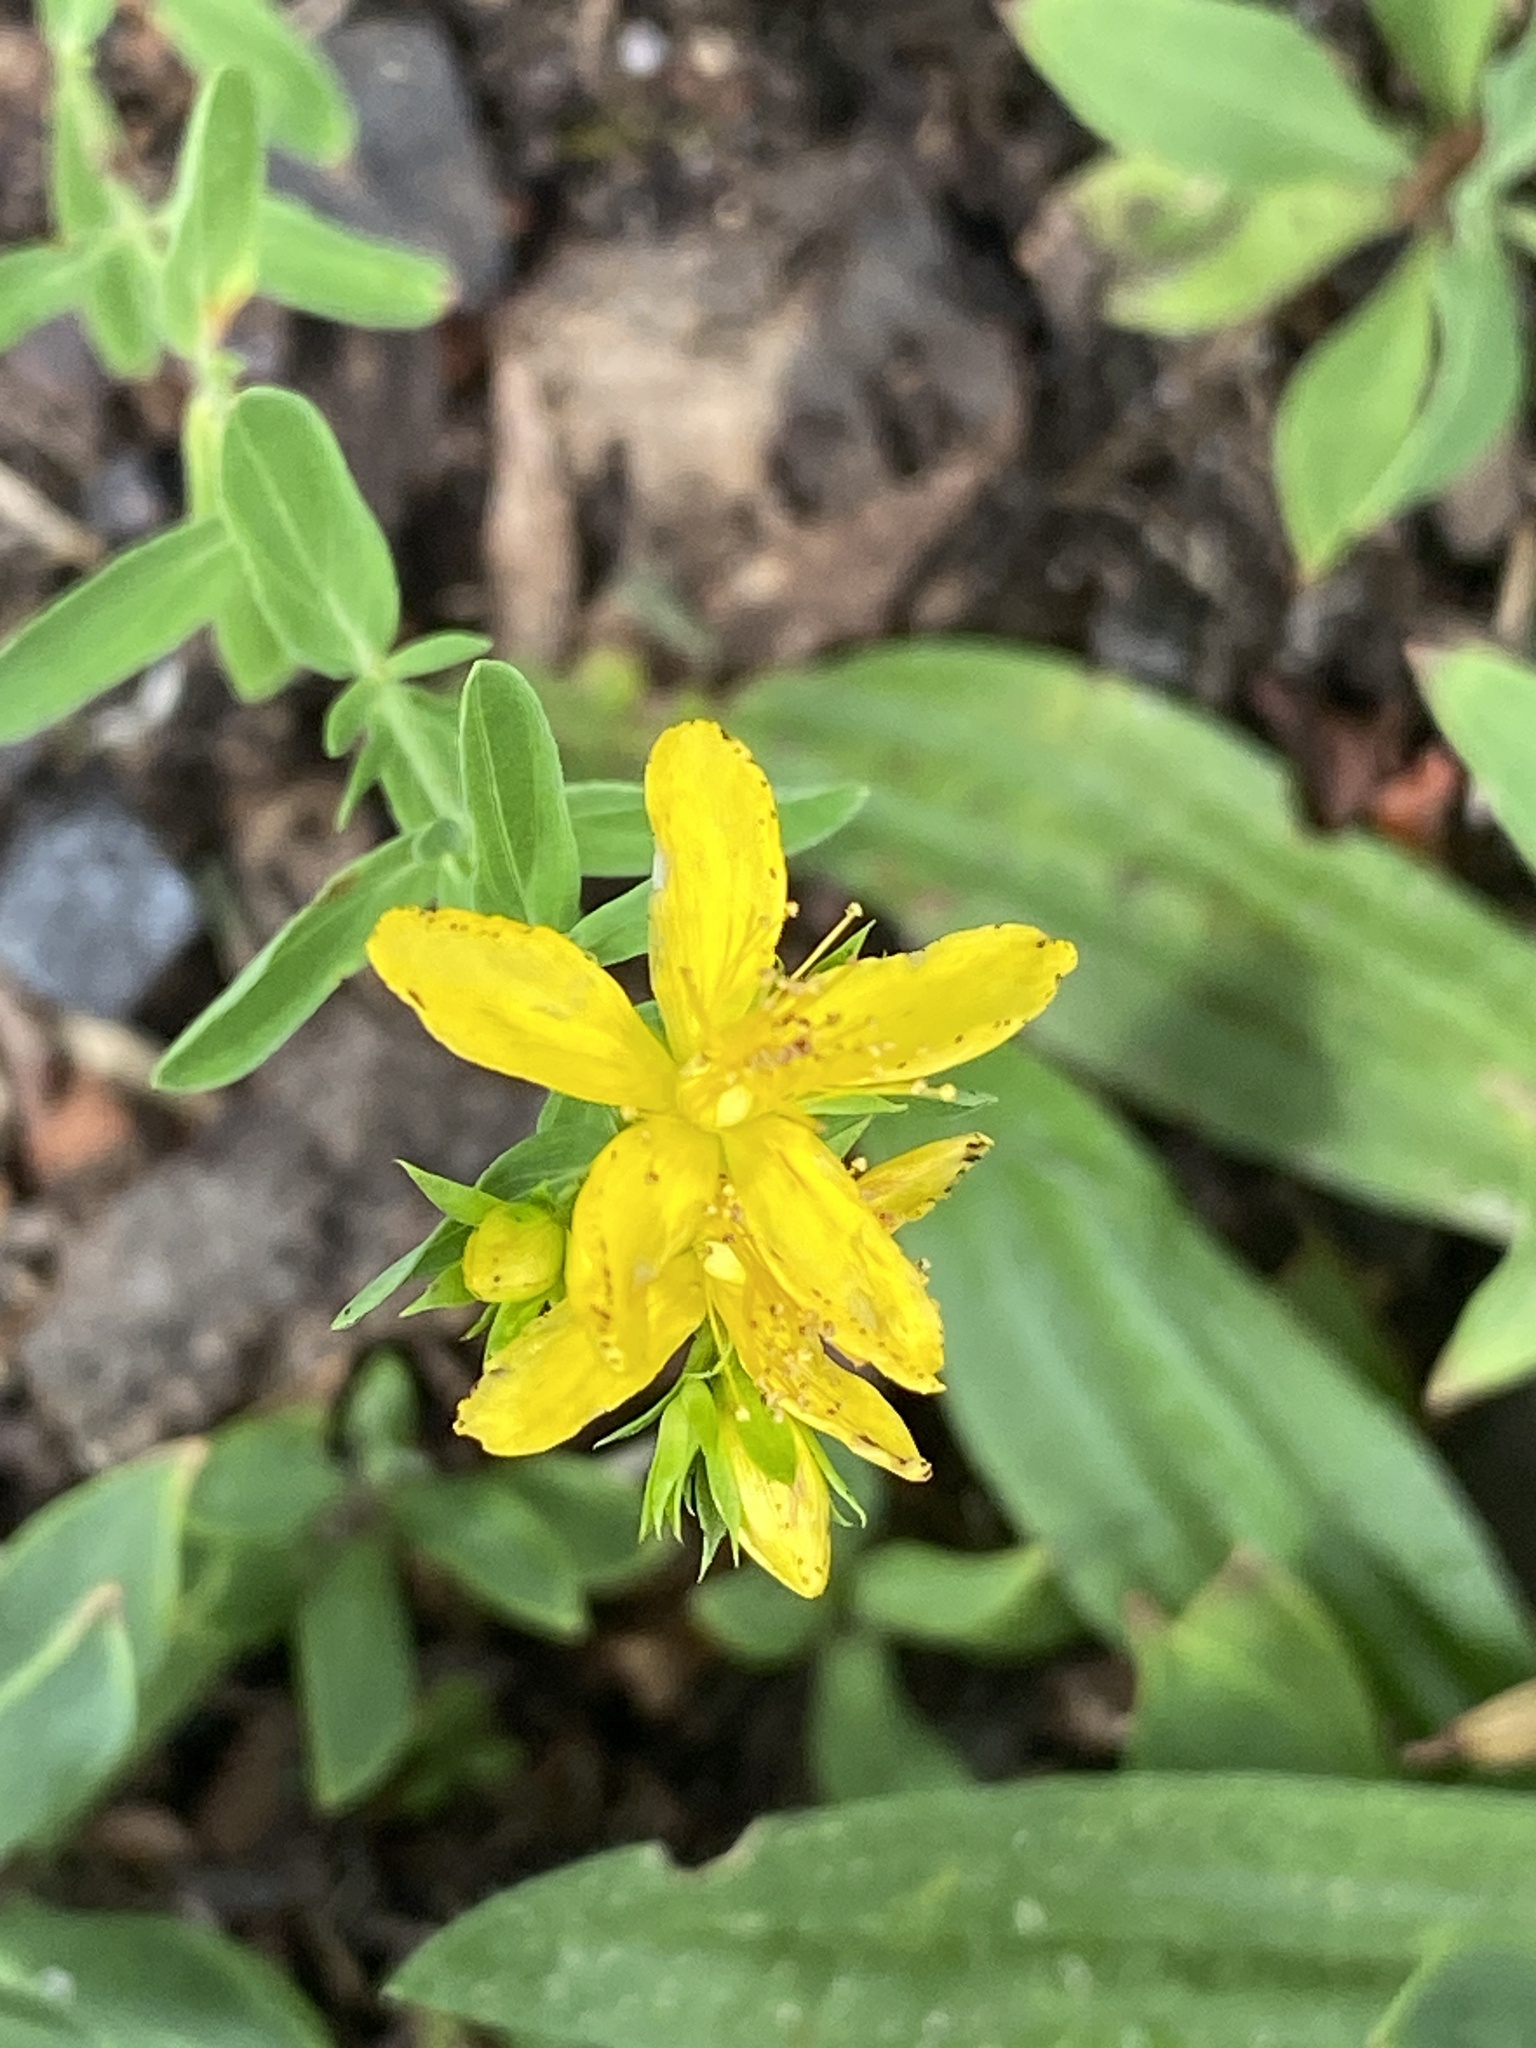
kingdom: Plantae
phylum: Tracheophyta
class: Magnoliopsida
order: Malpighiales
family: Hypericaceae
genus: Hypericum
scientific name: Hypericum perforatum
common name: Common st. johnswort
